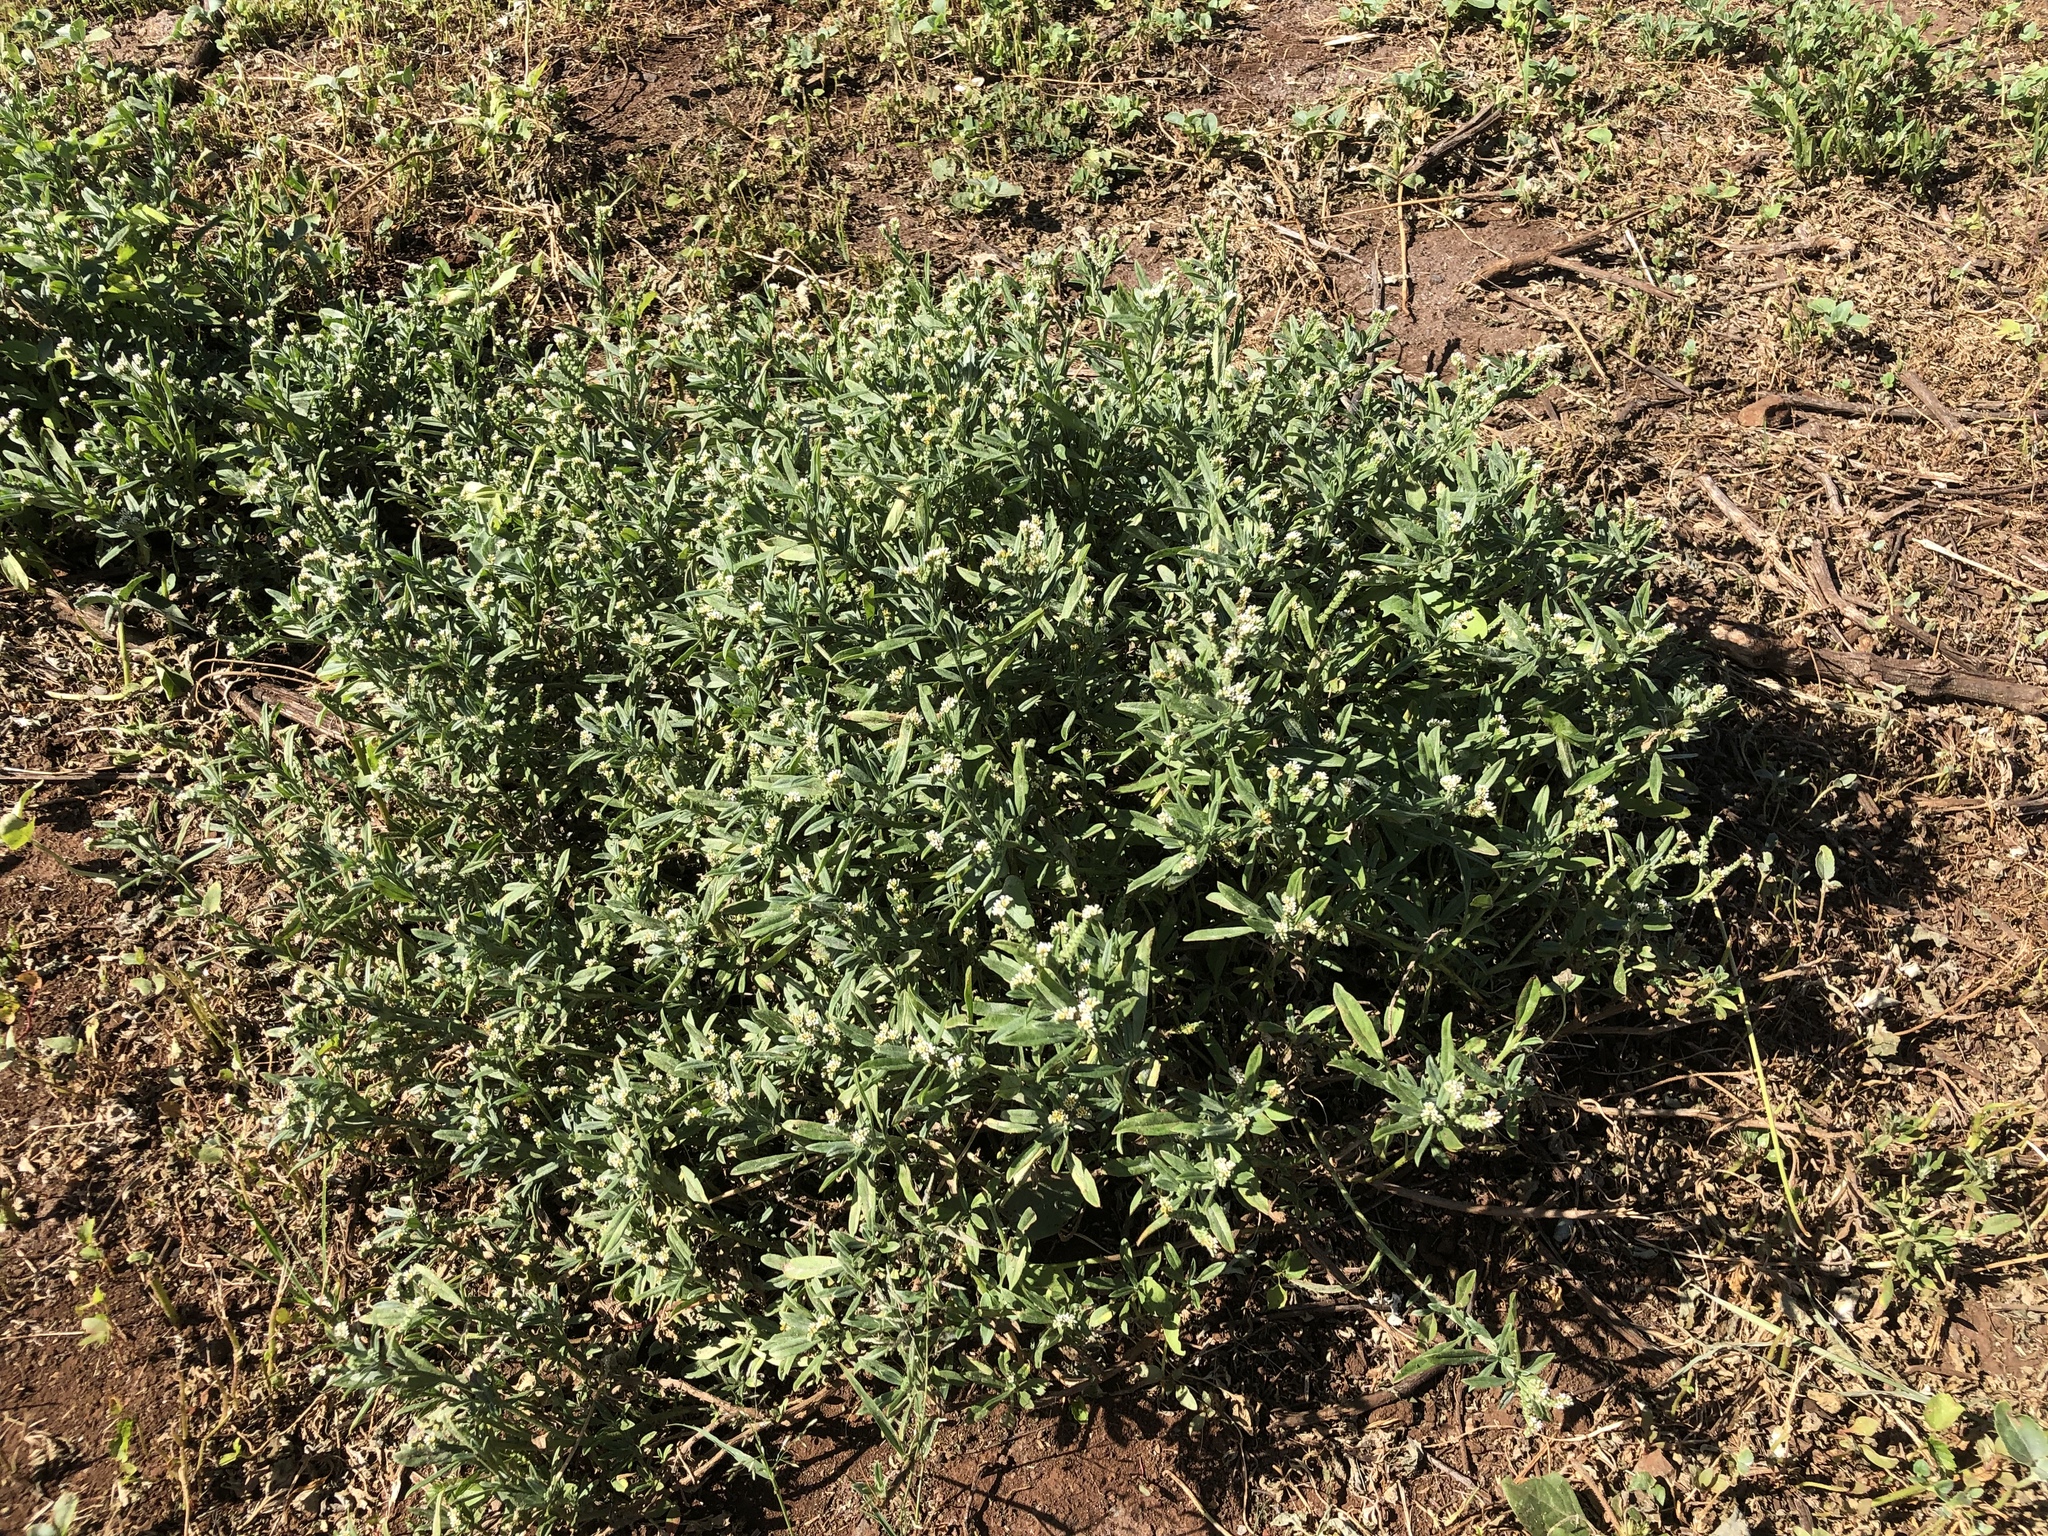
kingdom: Plantae
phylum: Tracheophyta
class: Magnoliopsida
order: Boraginales
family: Heliotropiaceae
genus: Euploca
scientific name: Euploca procumbens
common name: Fourspike heliotrope
